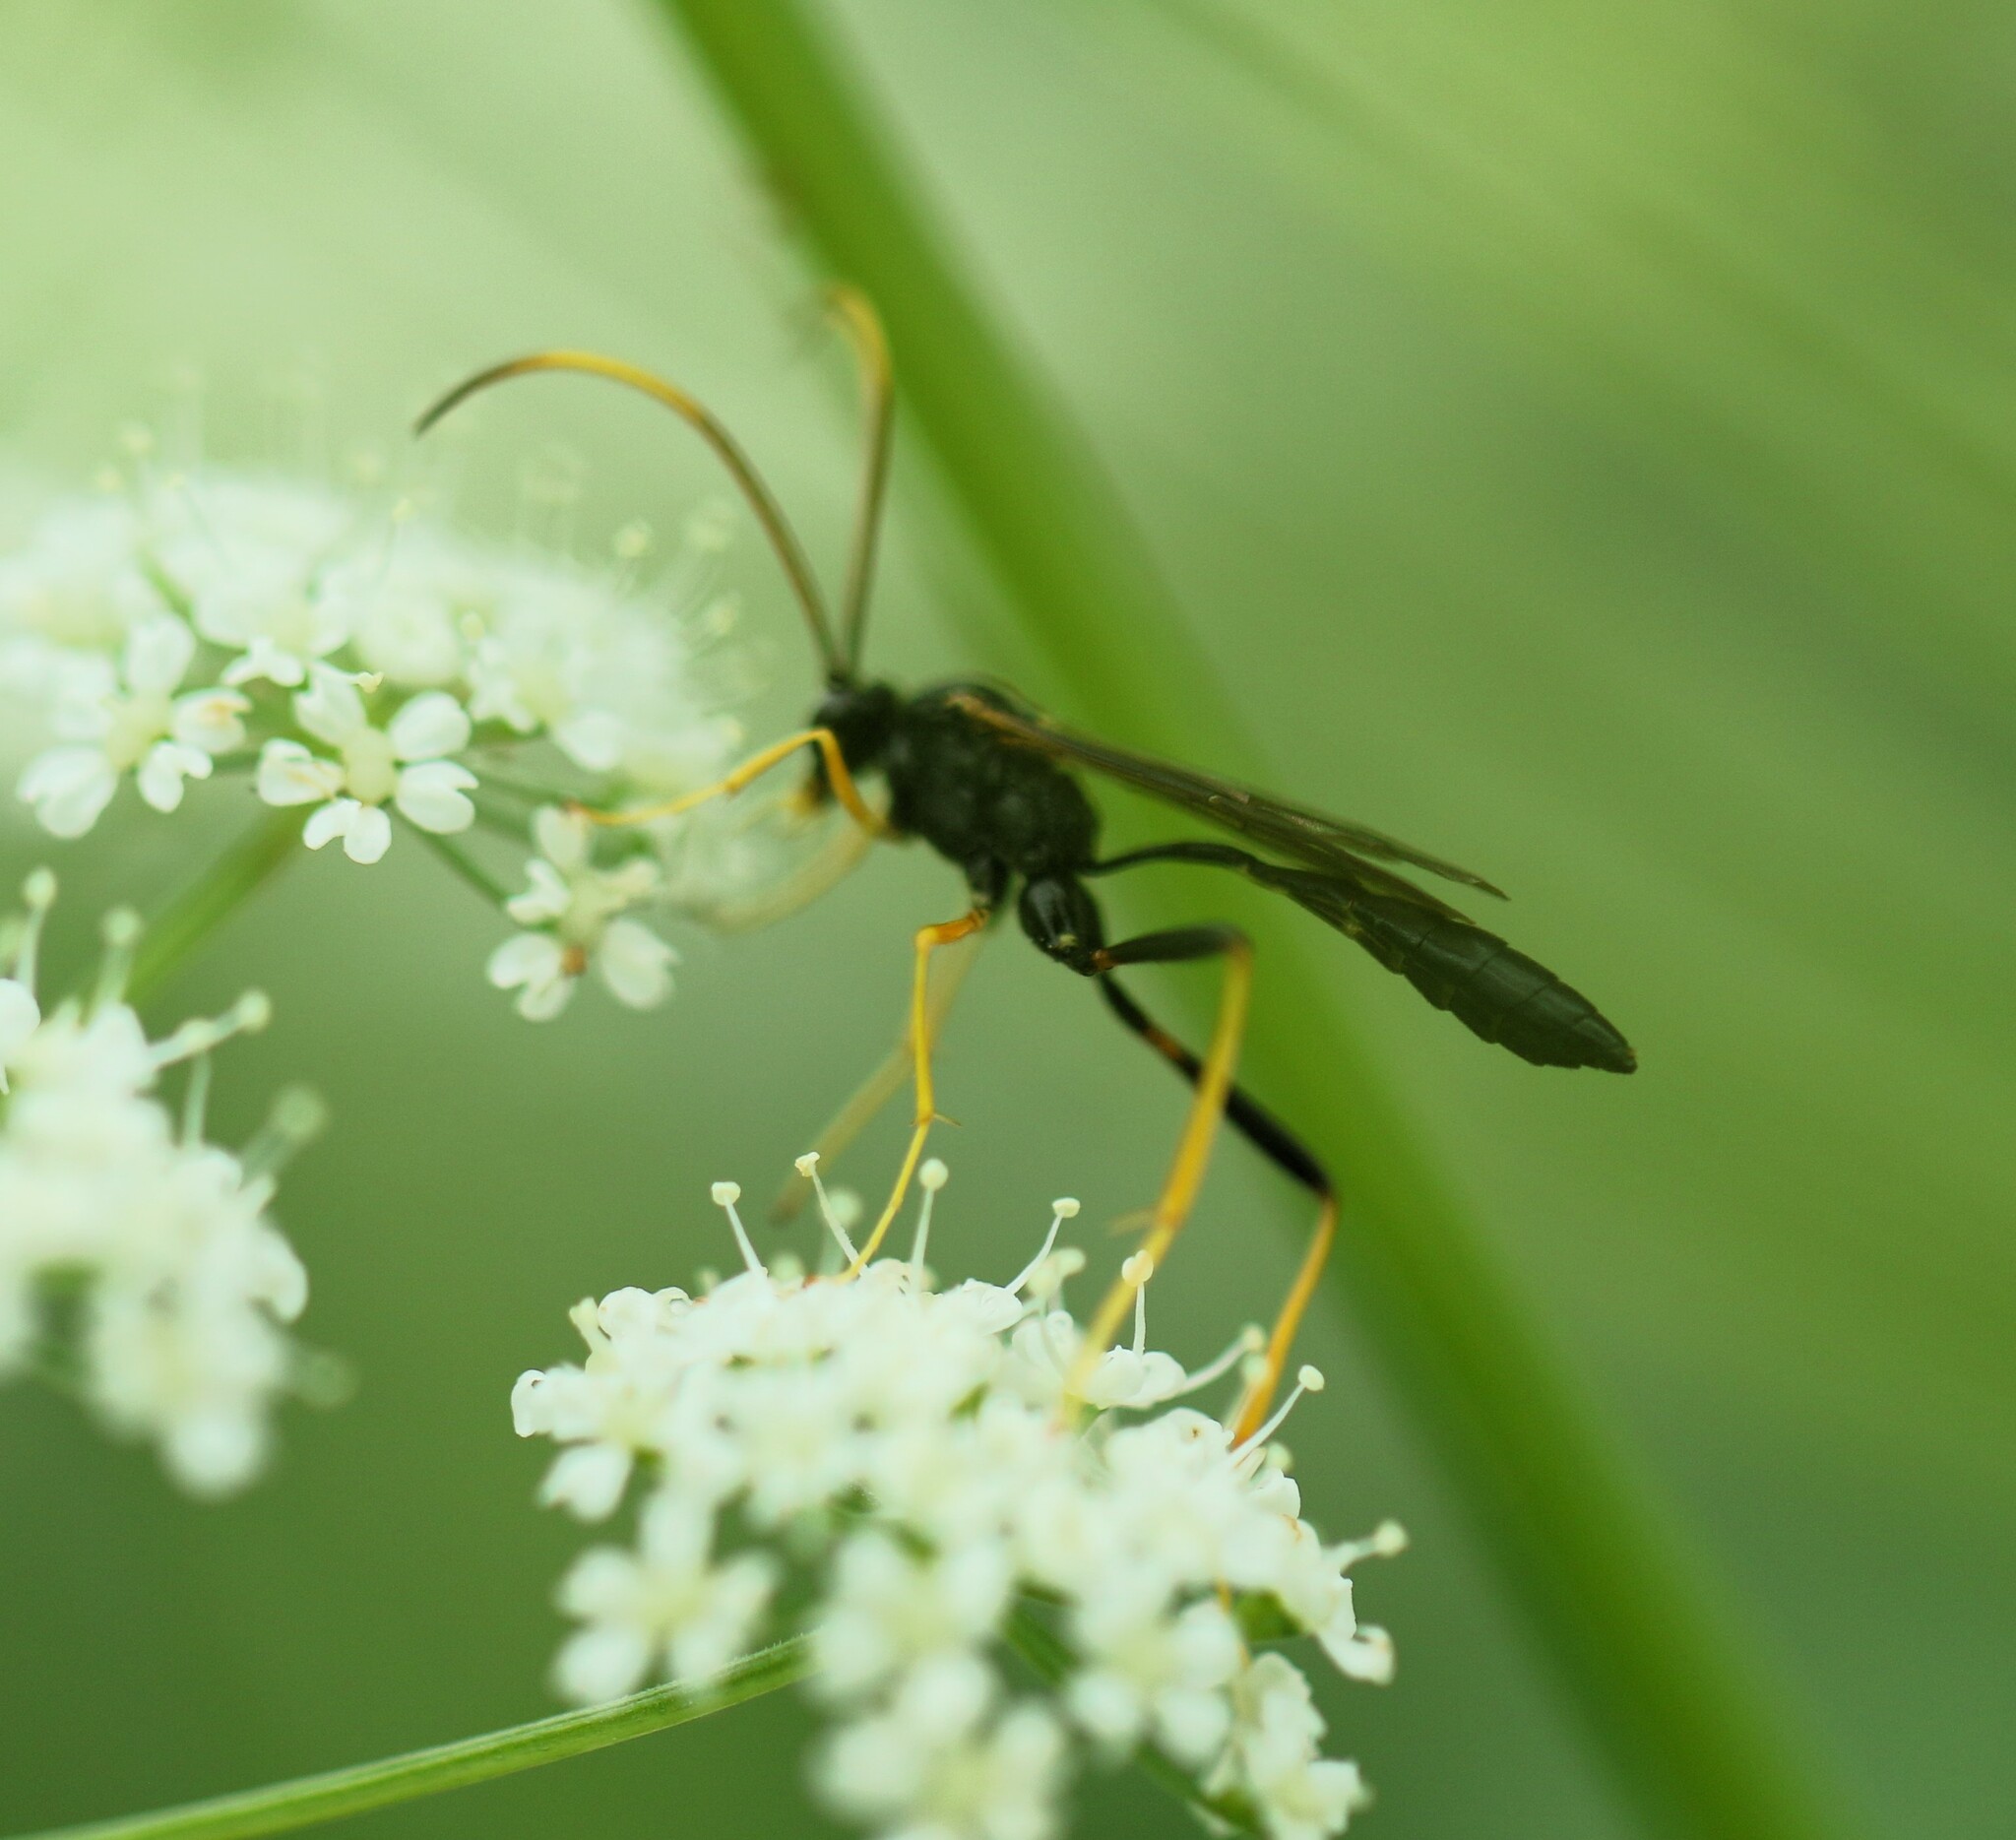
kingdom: Animalia
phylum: Arthropoda
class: Insecta
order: Hymenoptera
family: Ichneumonidae
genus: Acroricnus
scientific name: Acroricnus stylator
